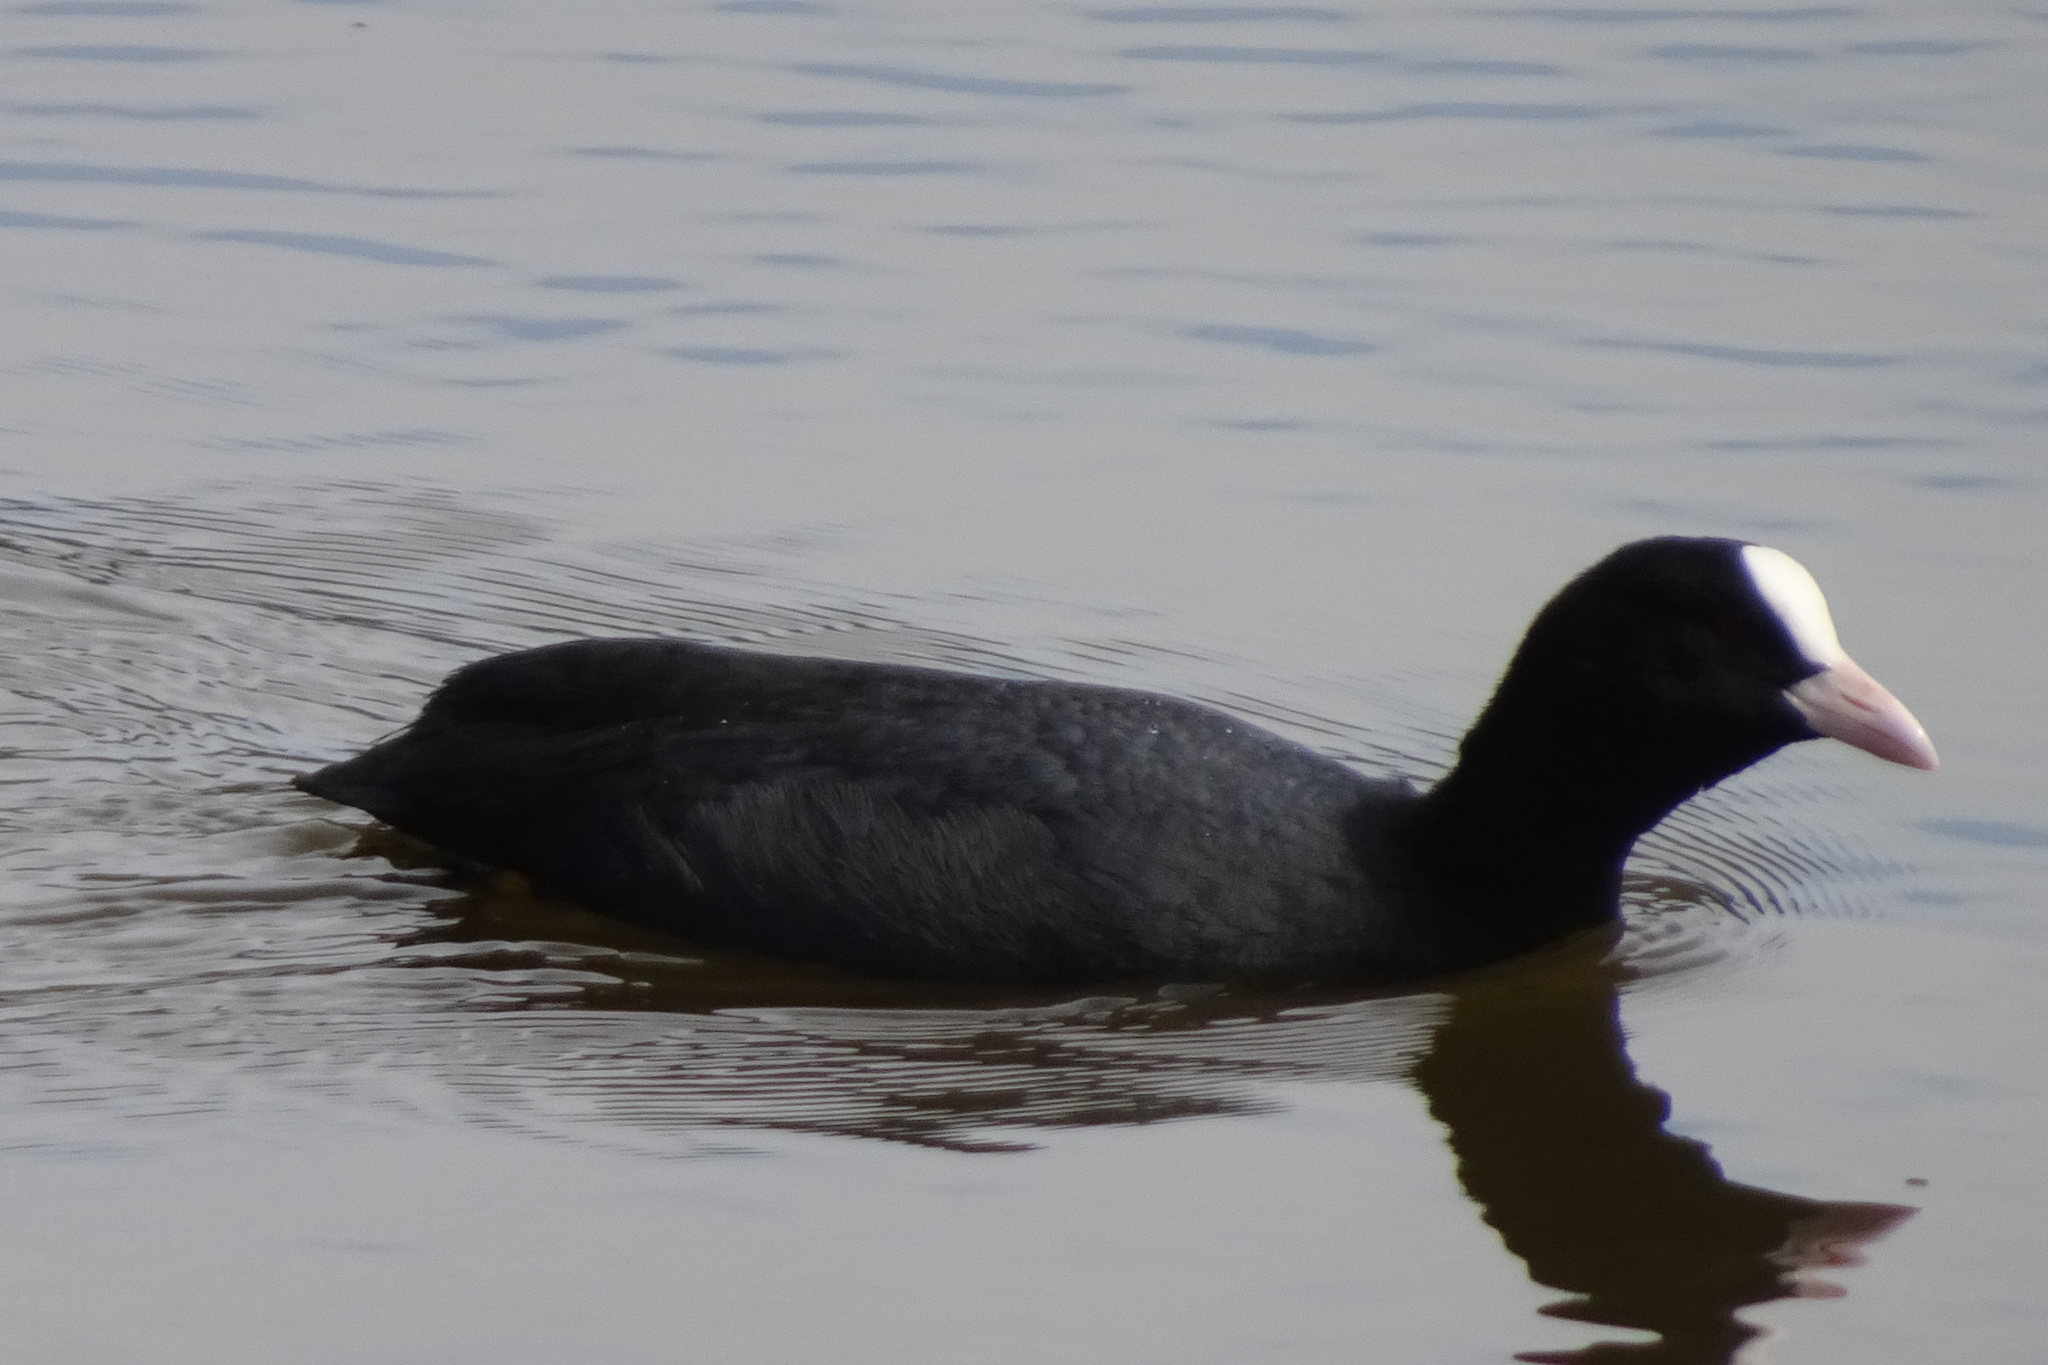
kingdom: Animalia
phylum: Chordata
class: Aves
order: Gruiformes
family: Rallidae
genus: Fulica
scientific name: Fulica atra
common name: Eurasian coot
